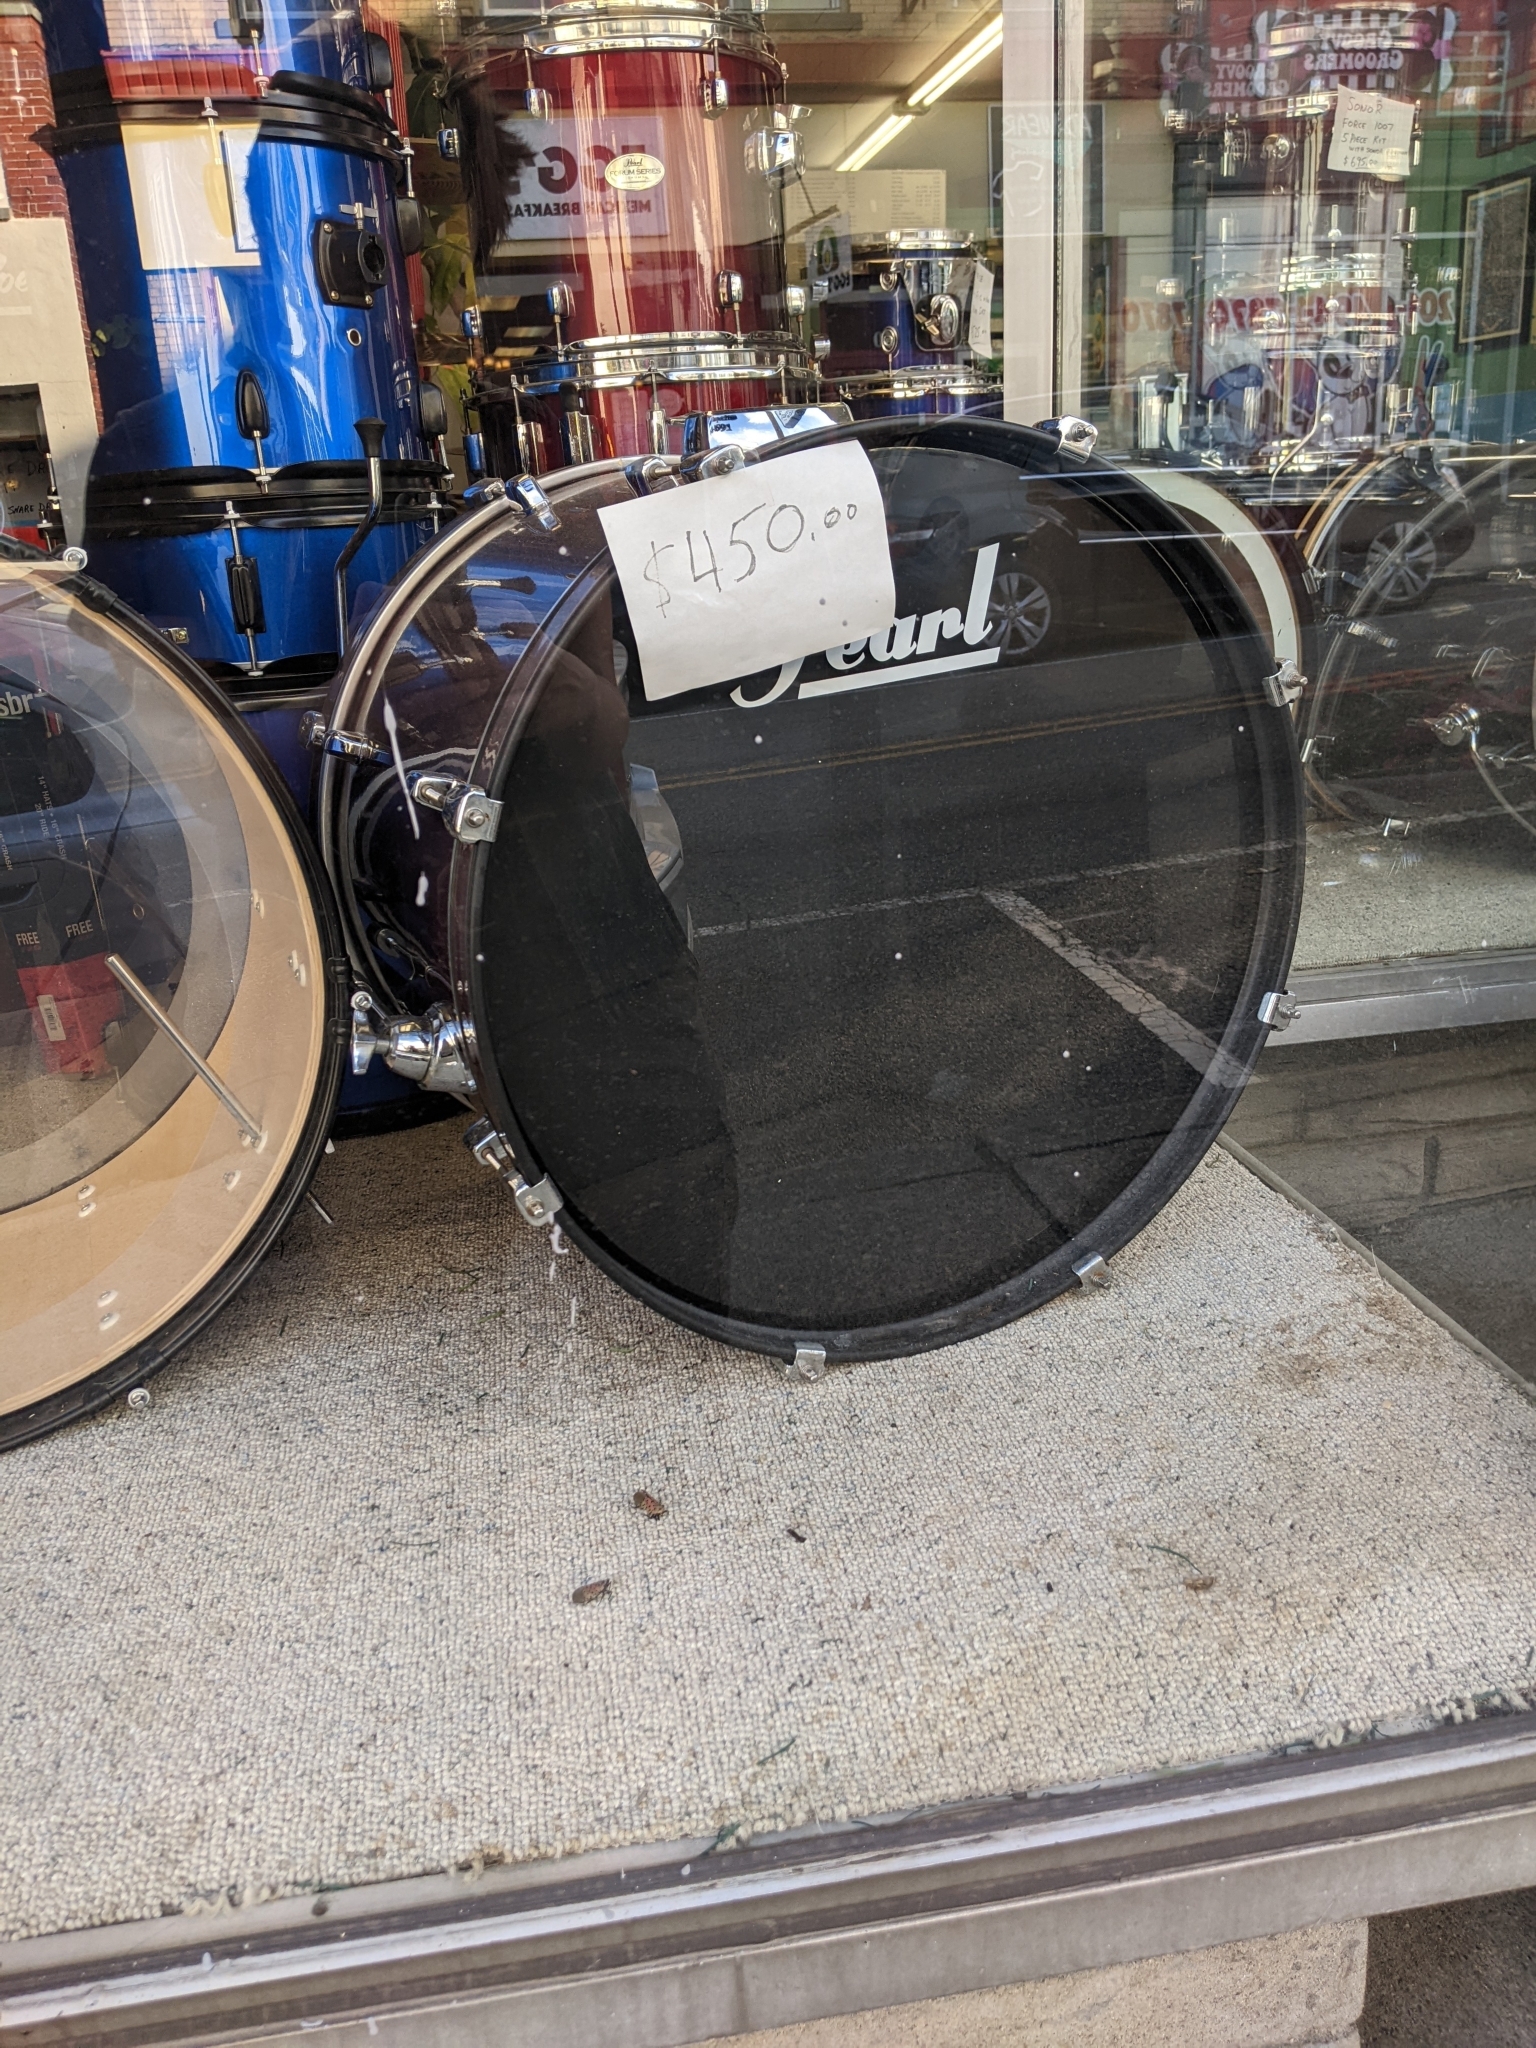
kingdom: Animalia
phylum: Arthropoda
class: Insecta
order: Hemiptera
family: Fulgoridae
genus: Lycorma
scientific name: Lycorma delicatula
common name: Spotted lanternfly
